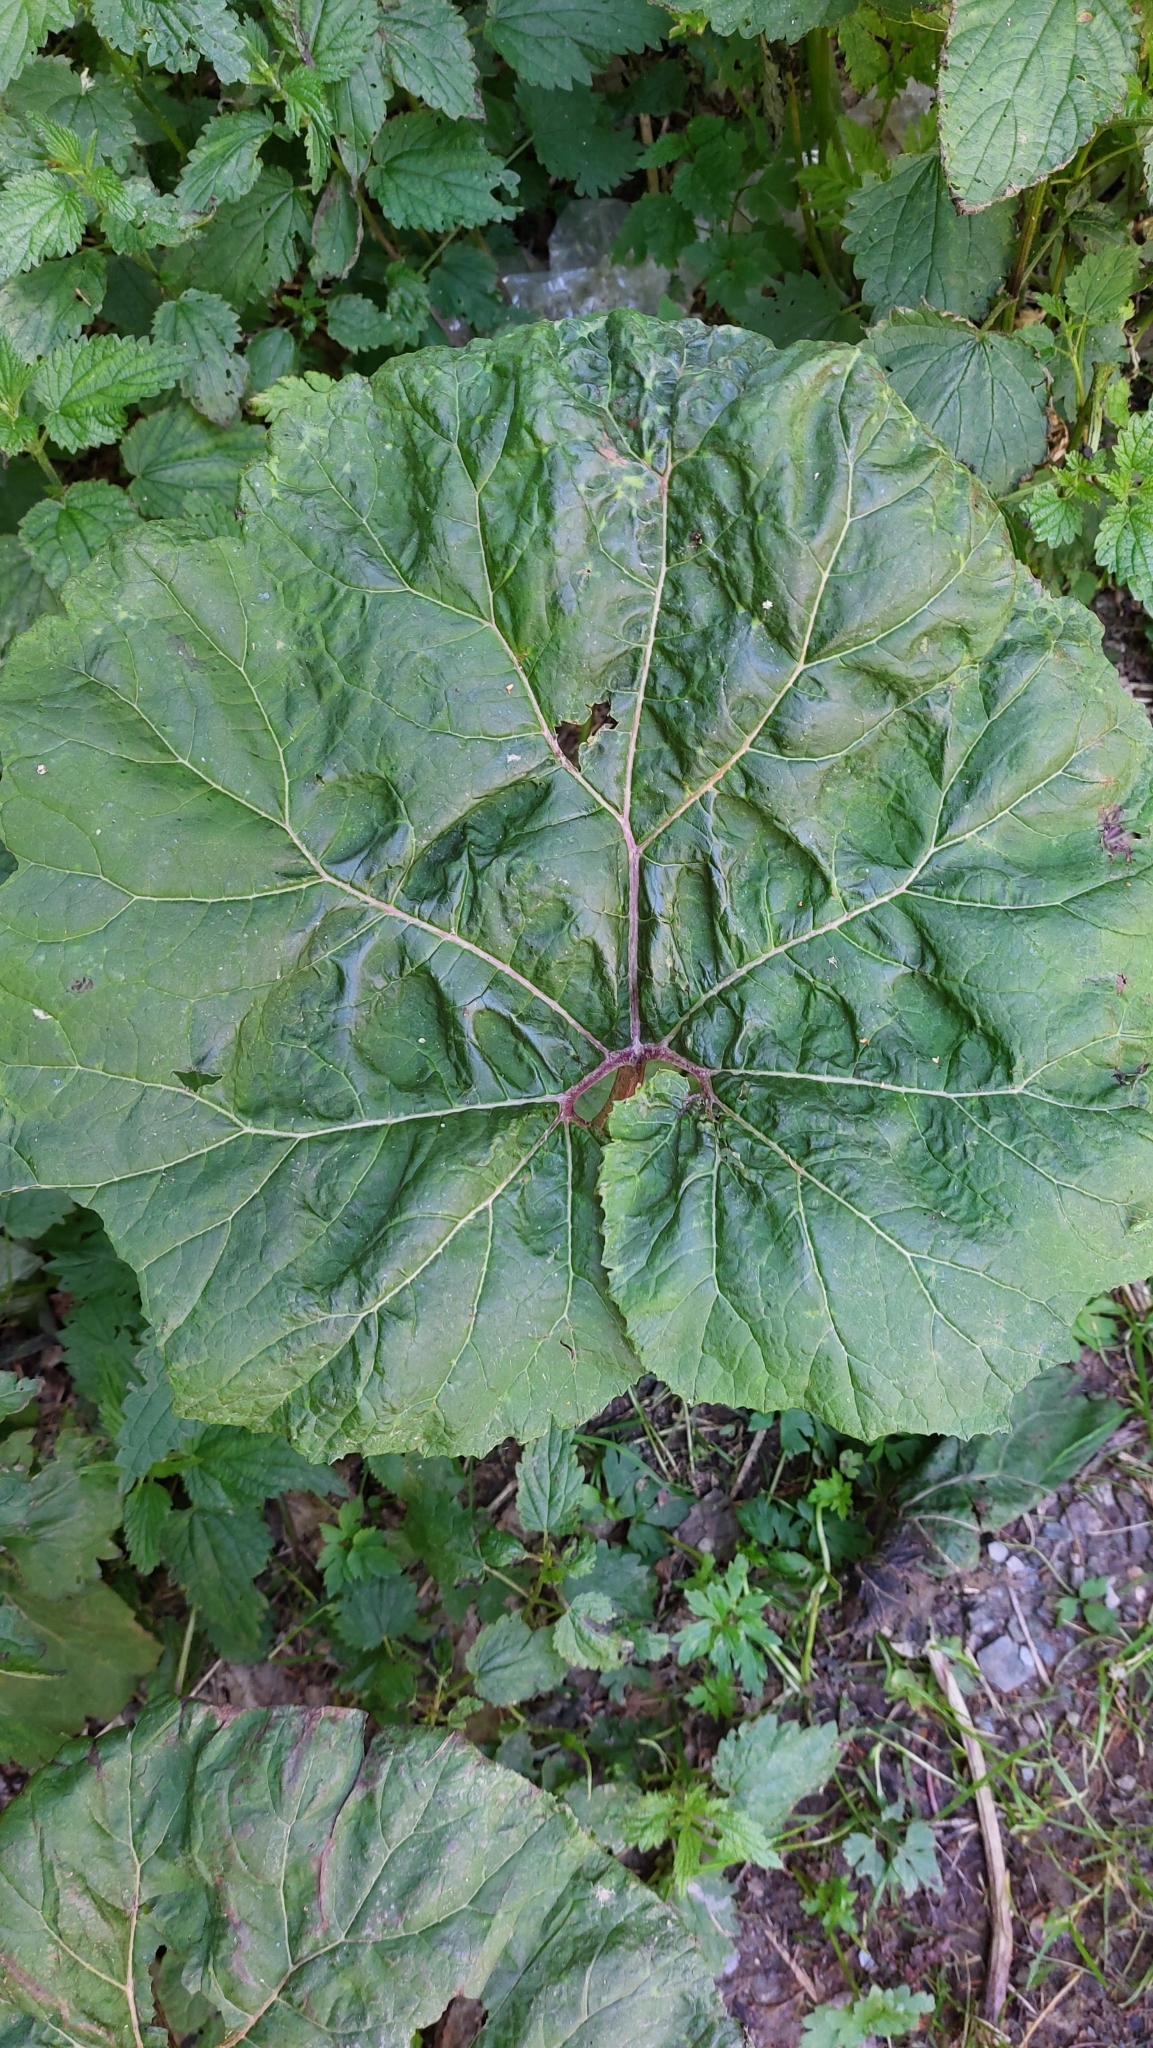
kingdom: Plantae
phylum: Tracheophyta
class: Magnoliopsida
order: Asterales
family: Asteraceae
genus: Petasites
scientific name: Petasites hybridus
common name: Butterbur
